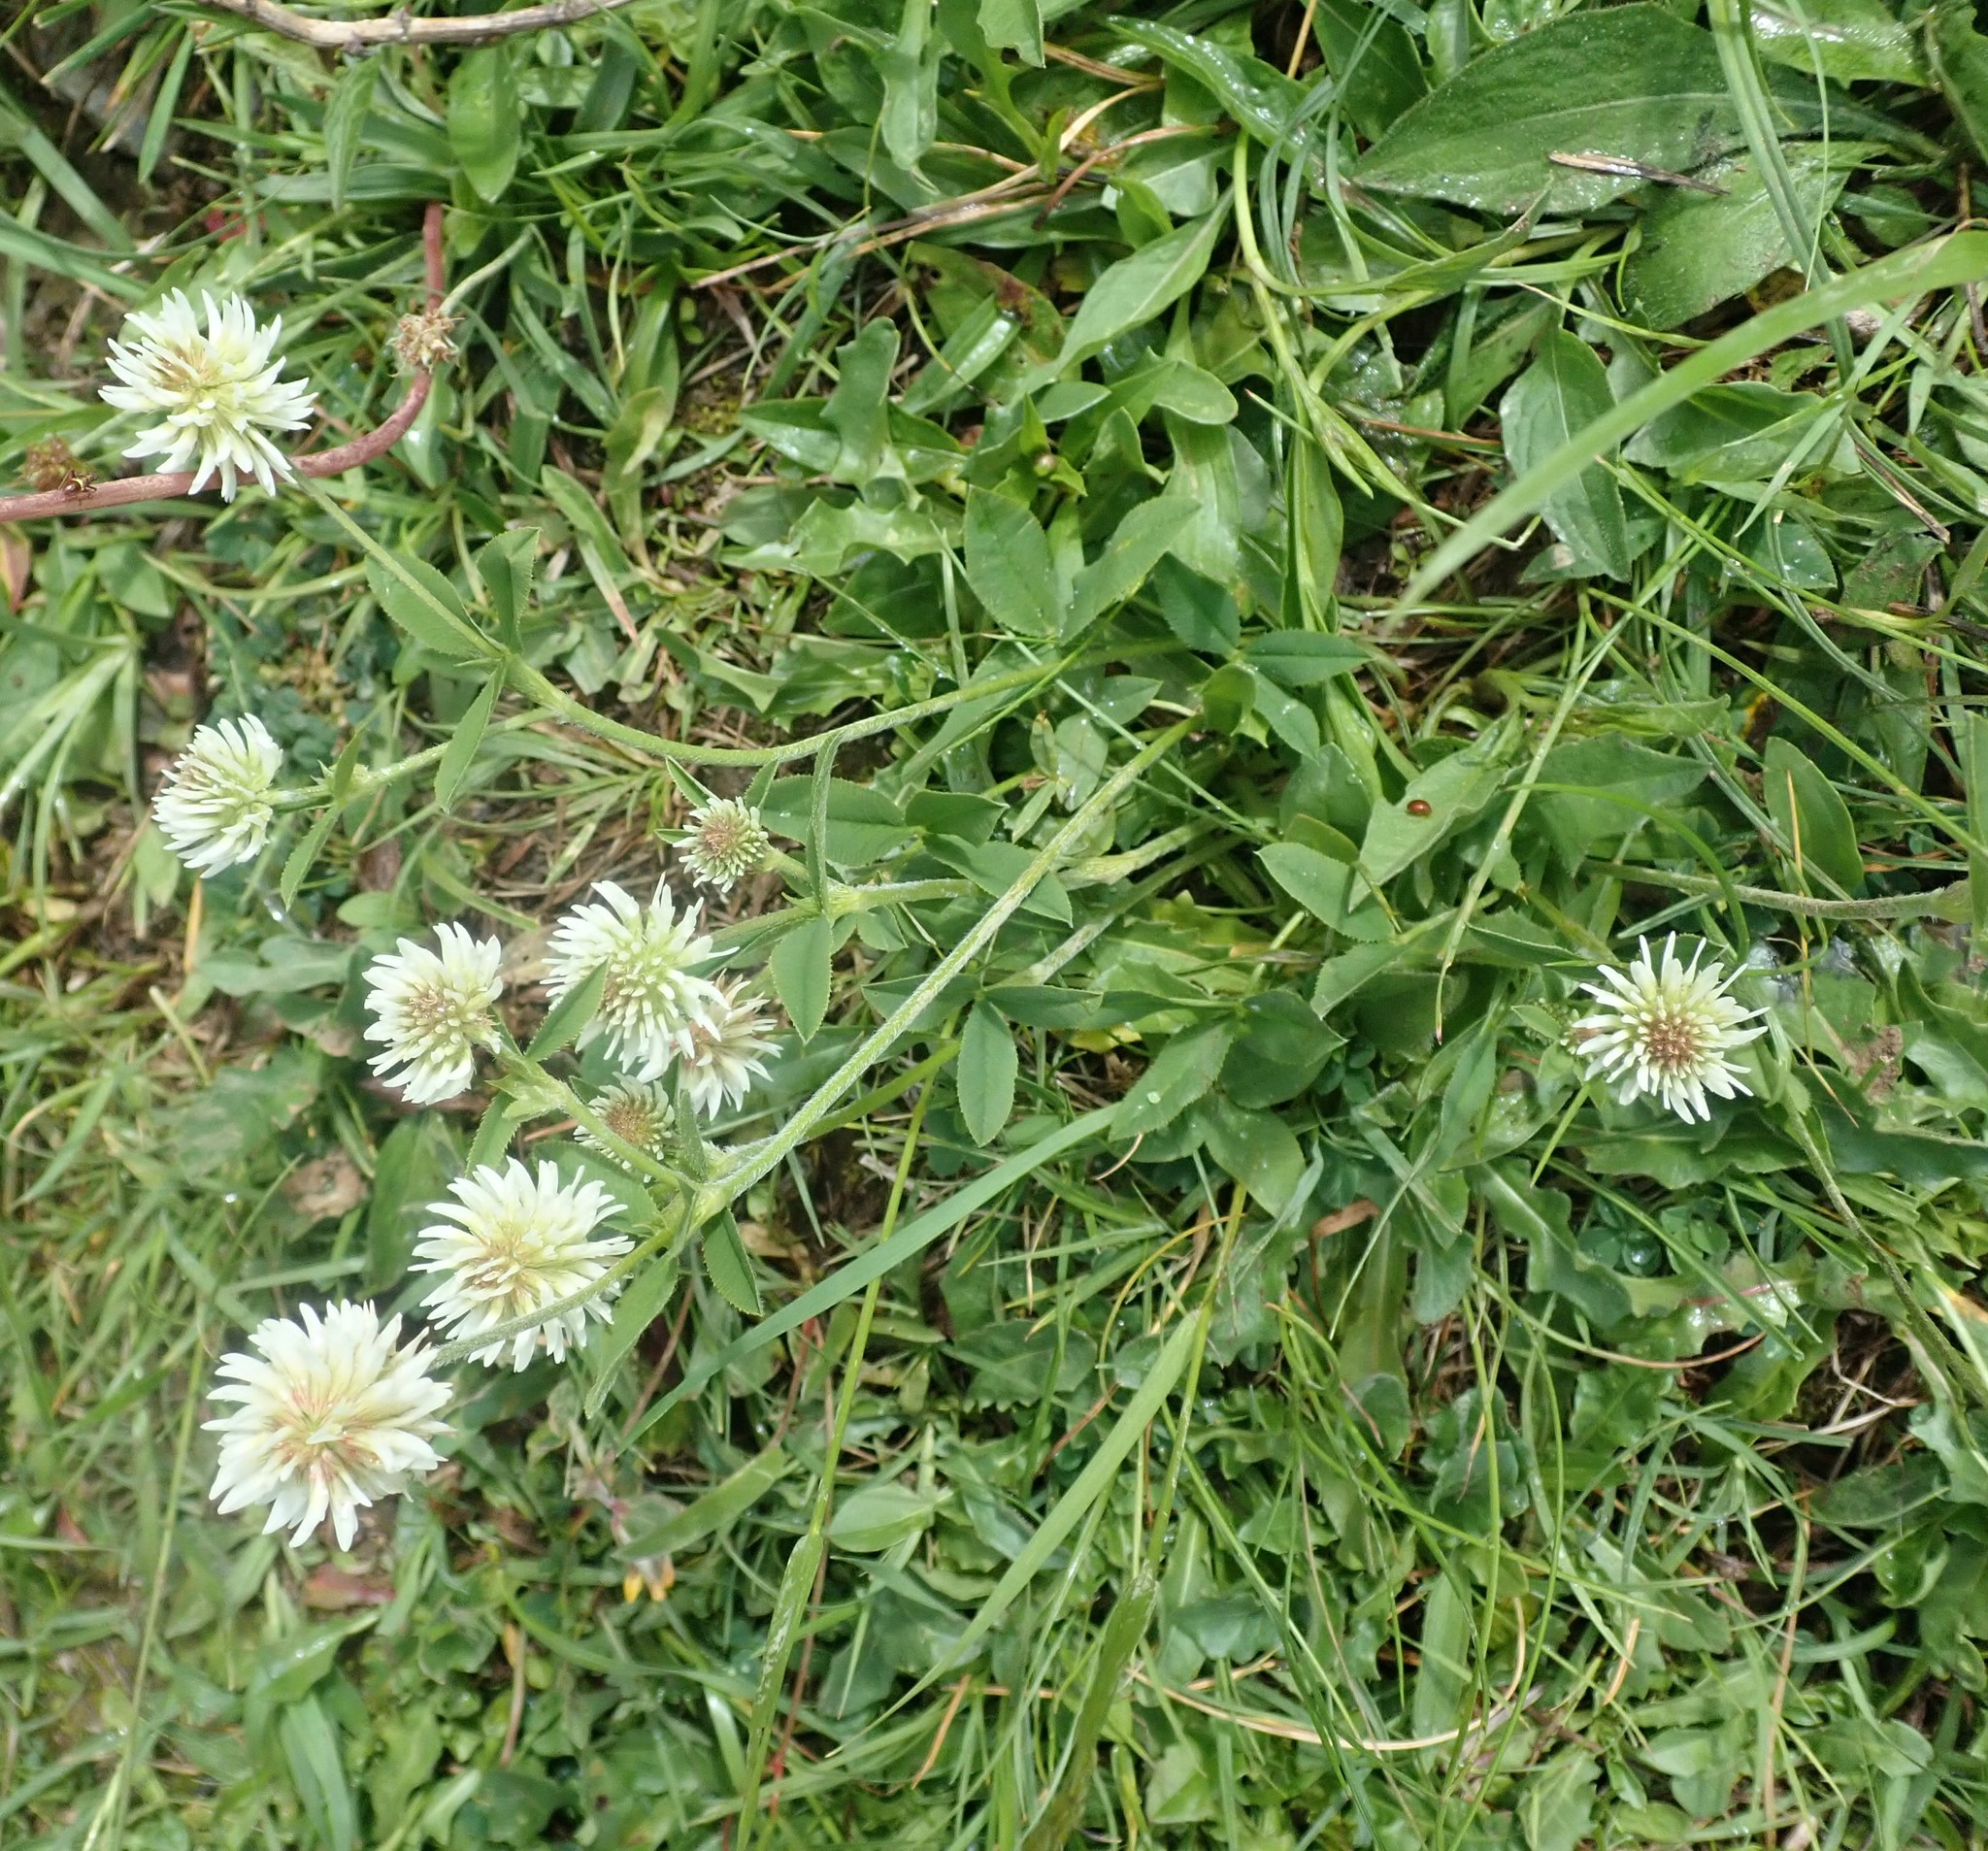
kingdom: Plantae
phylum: Tracheophyta
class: Magnoliopsida
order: Fabales
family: Fabaceae
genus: Trifolium
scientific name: Trifolium montanum
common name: Mountain clover
